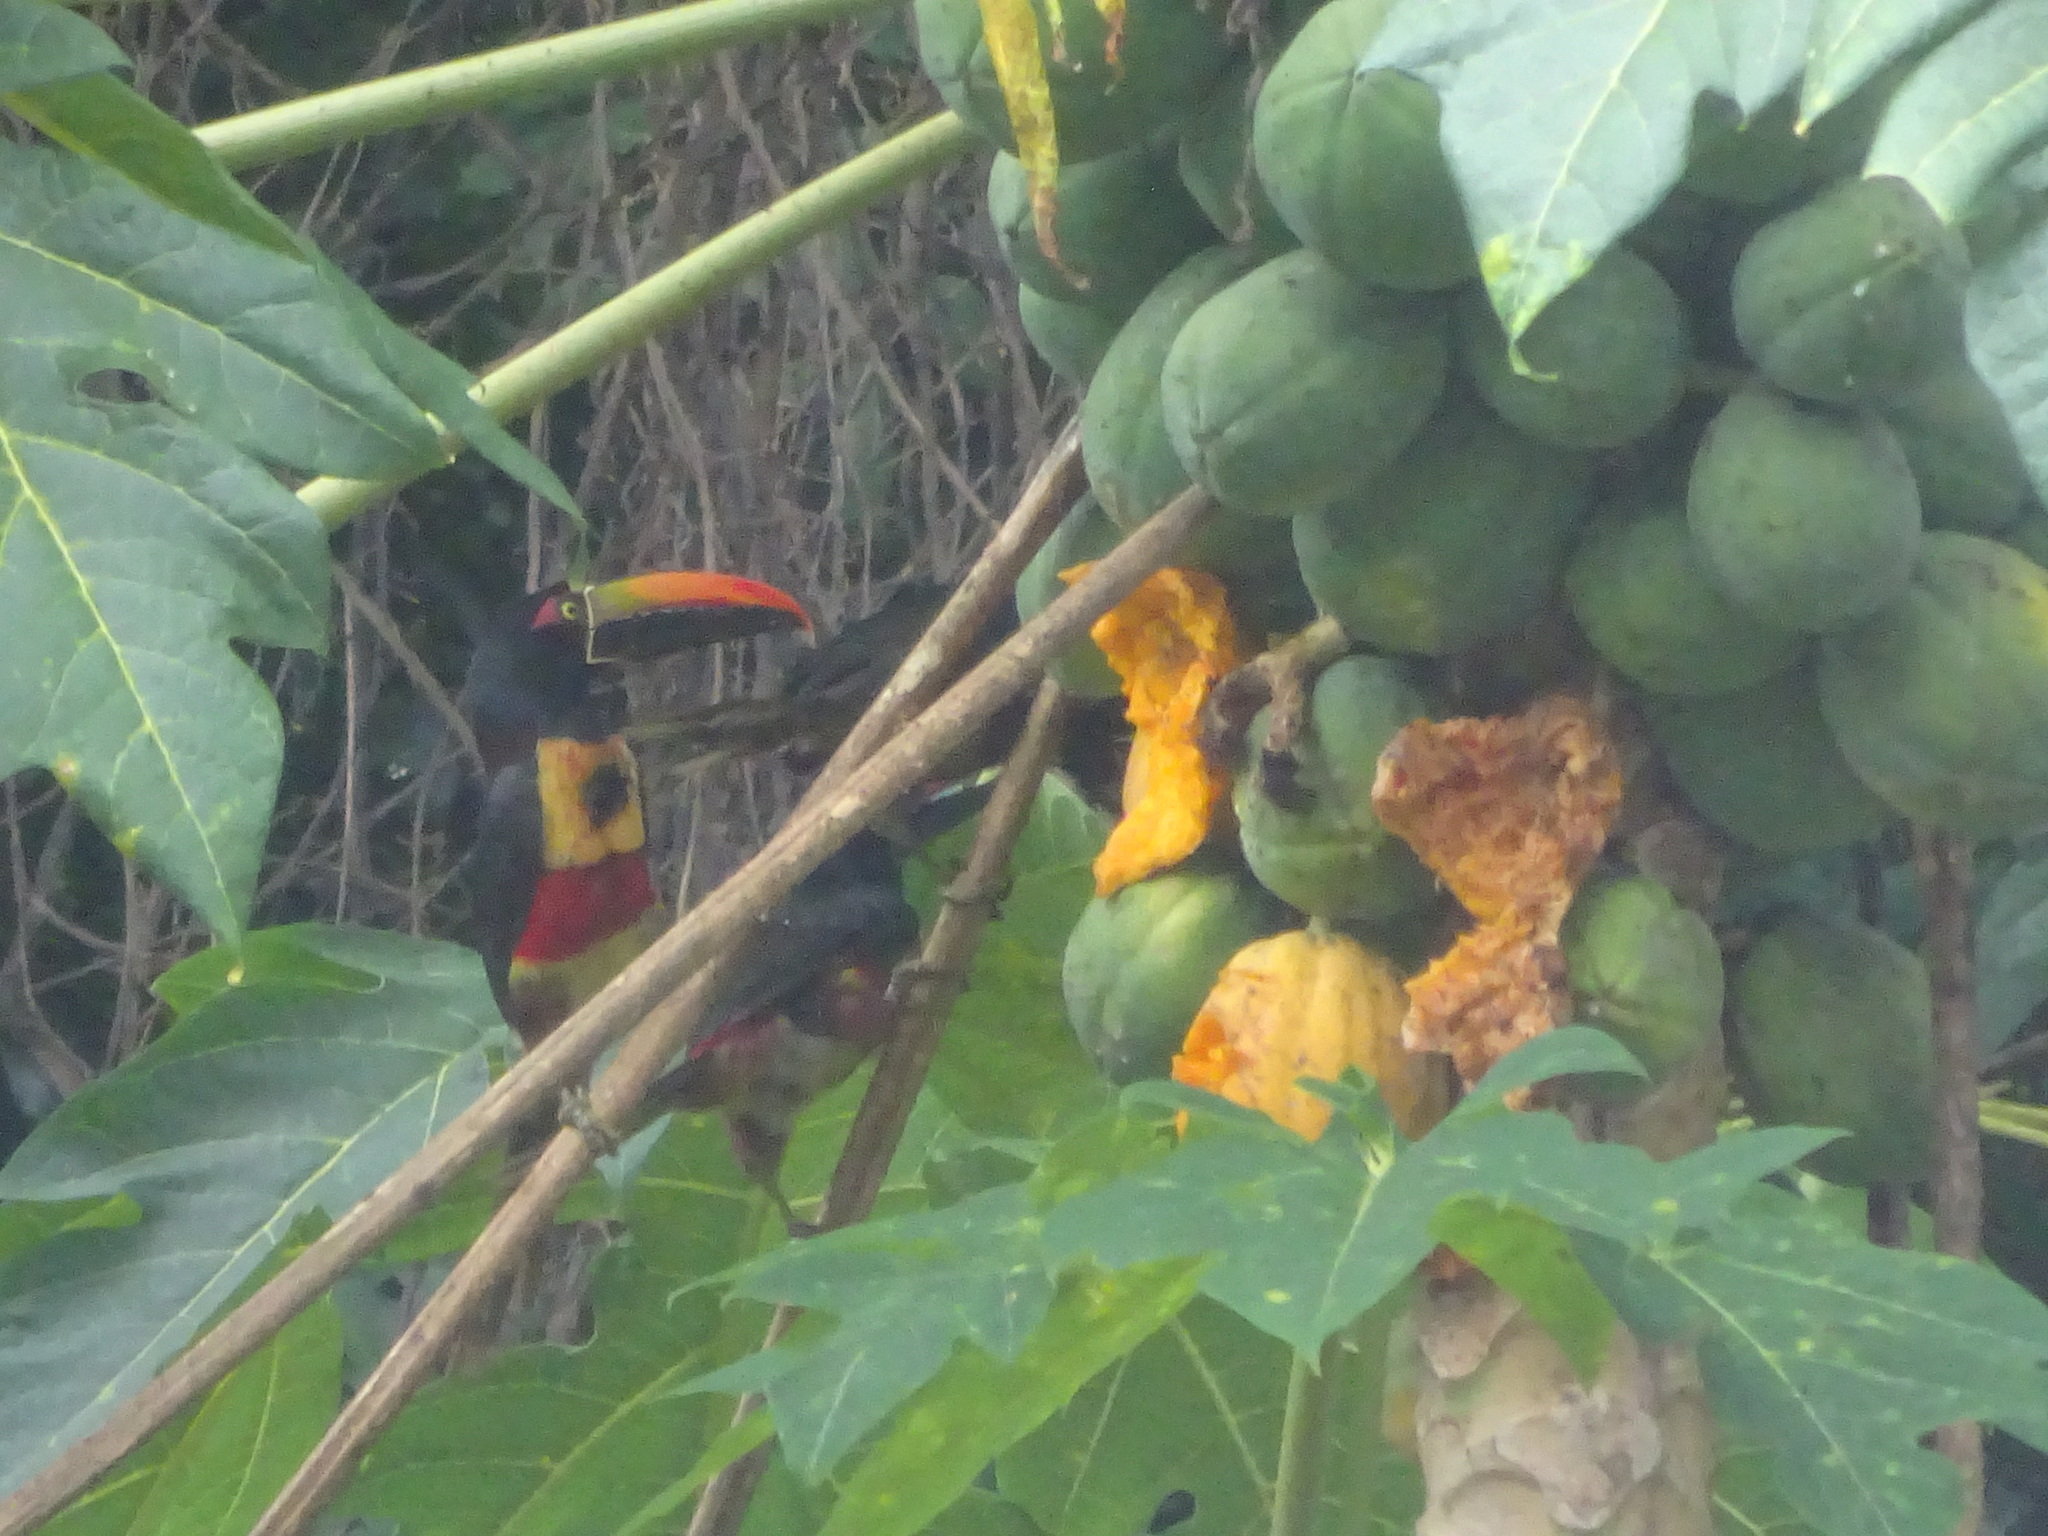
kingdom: Animalia
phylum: Chordata
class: Aves
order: Piciformes
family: Ramphastidae
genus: Pteroglossus
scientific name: Pteroglossus frantzii
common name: Fiery-billed aracari
